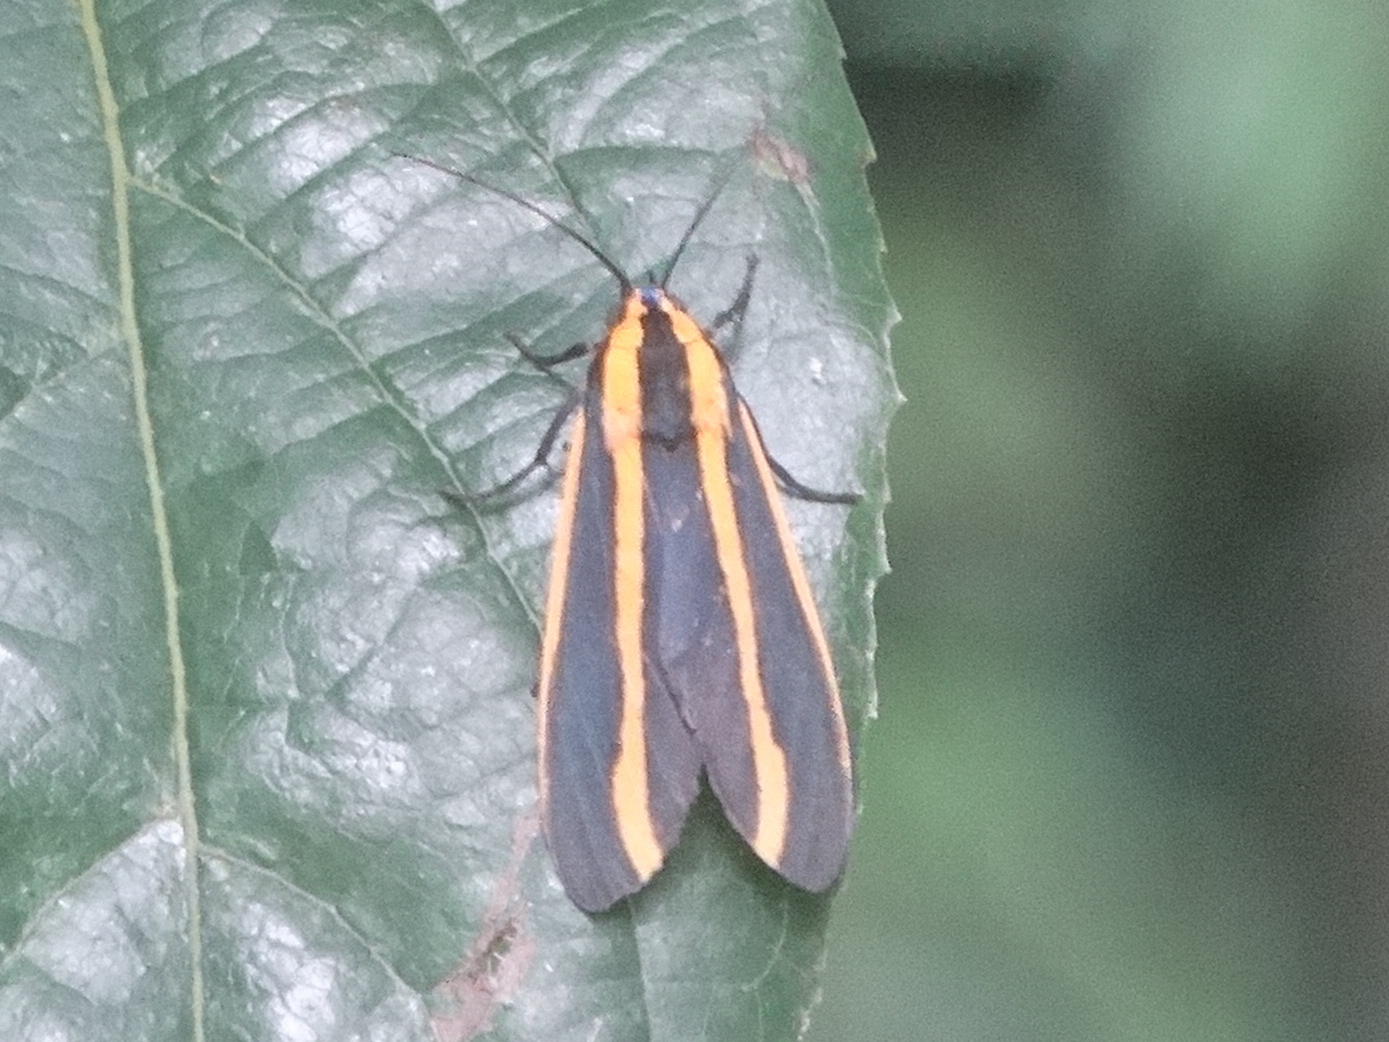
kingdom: Animalia
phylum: Arthropoda
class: Insecta
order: Lepidoptera
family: Erebidae
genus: Ormetica
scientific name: Ormetica ataenia
